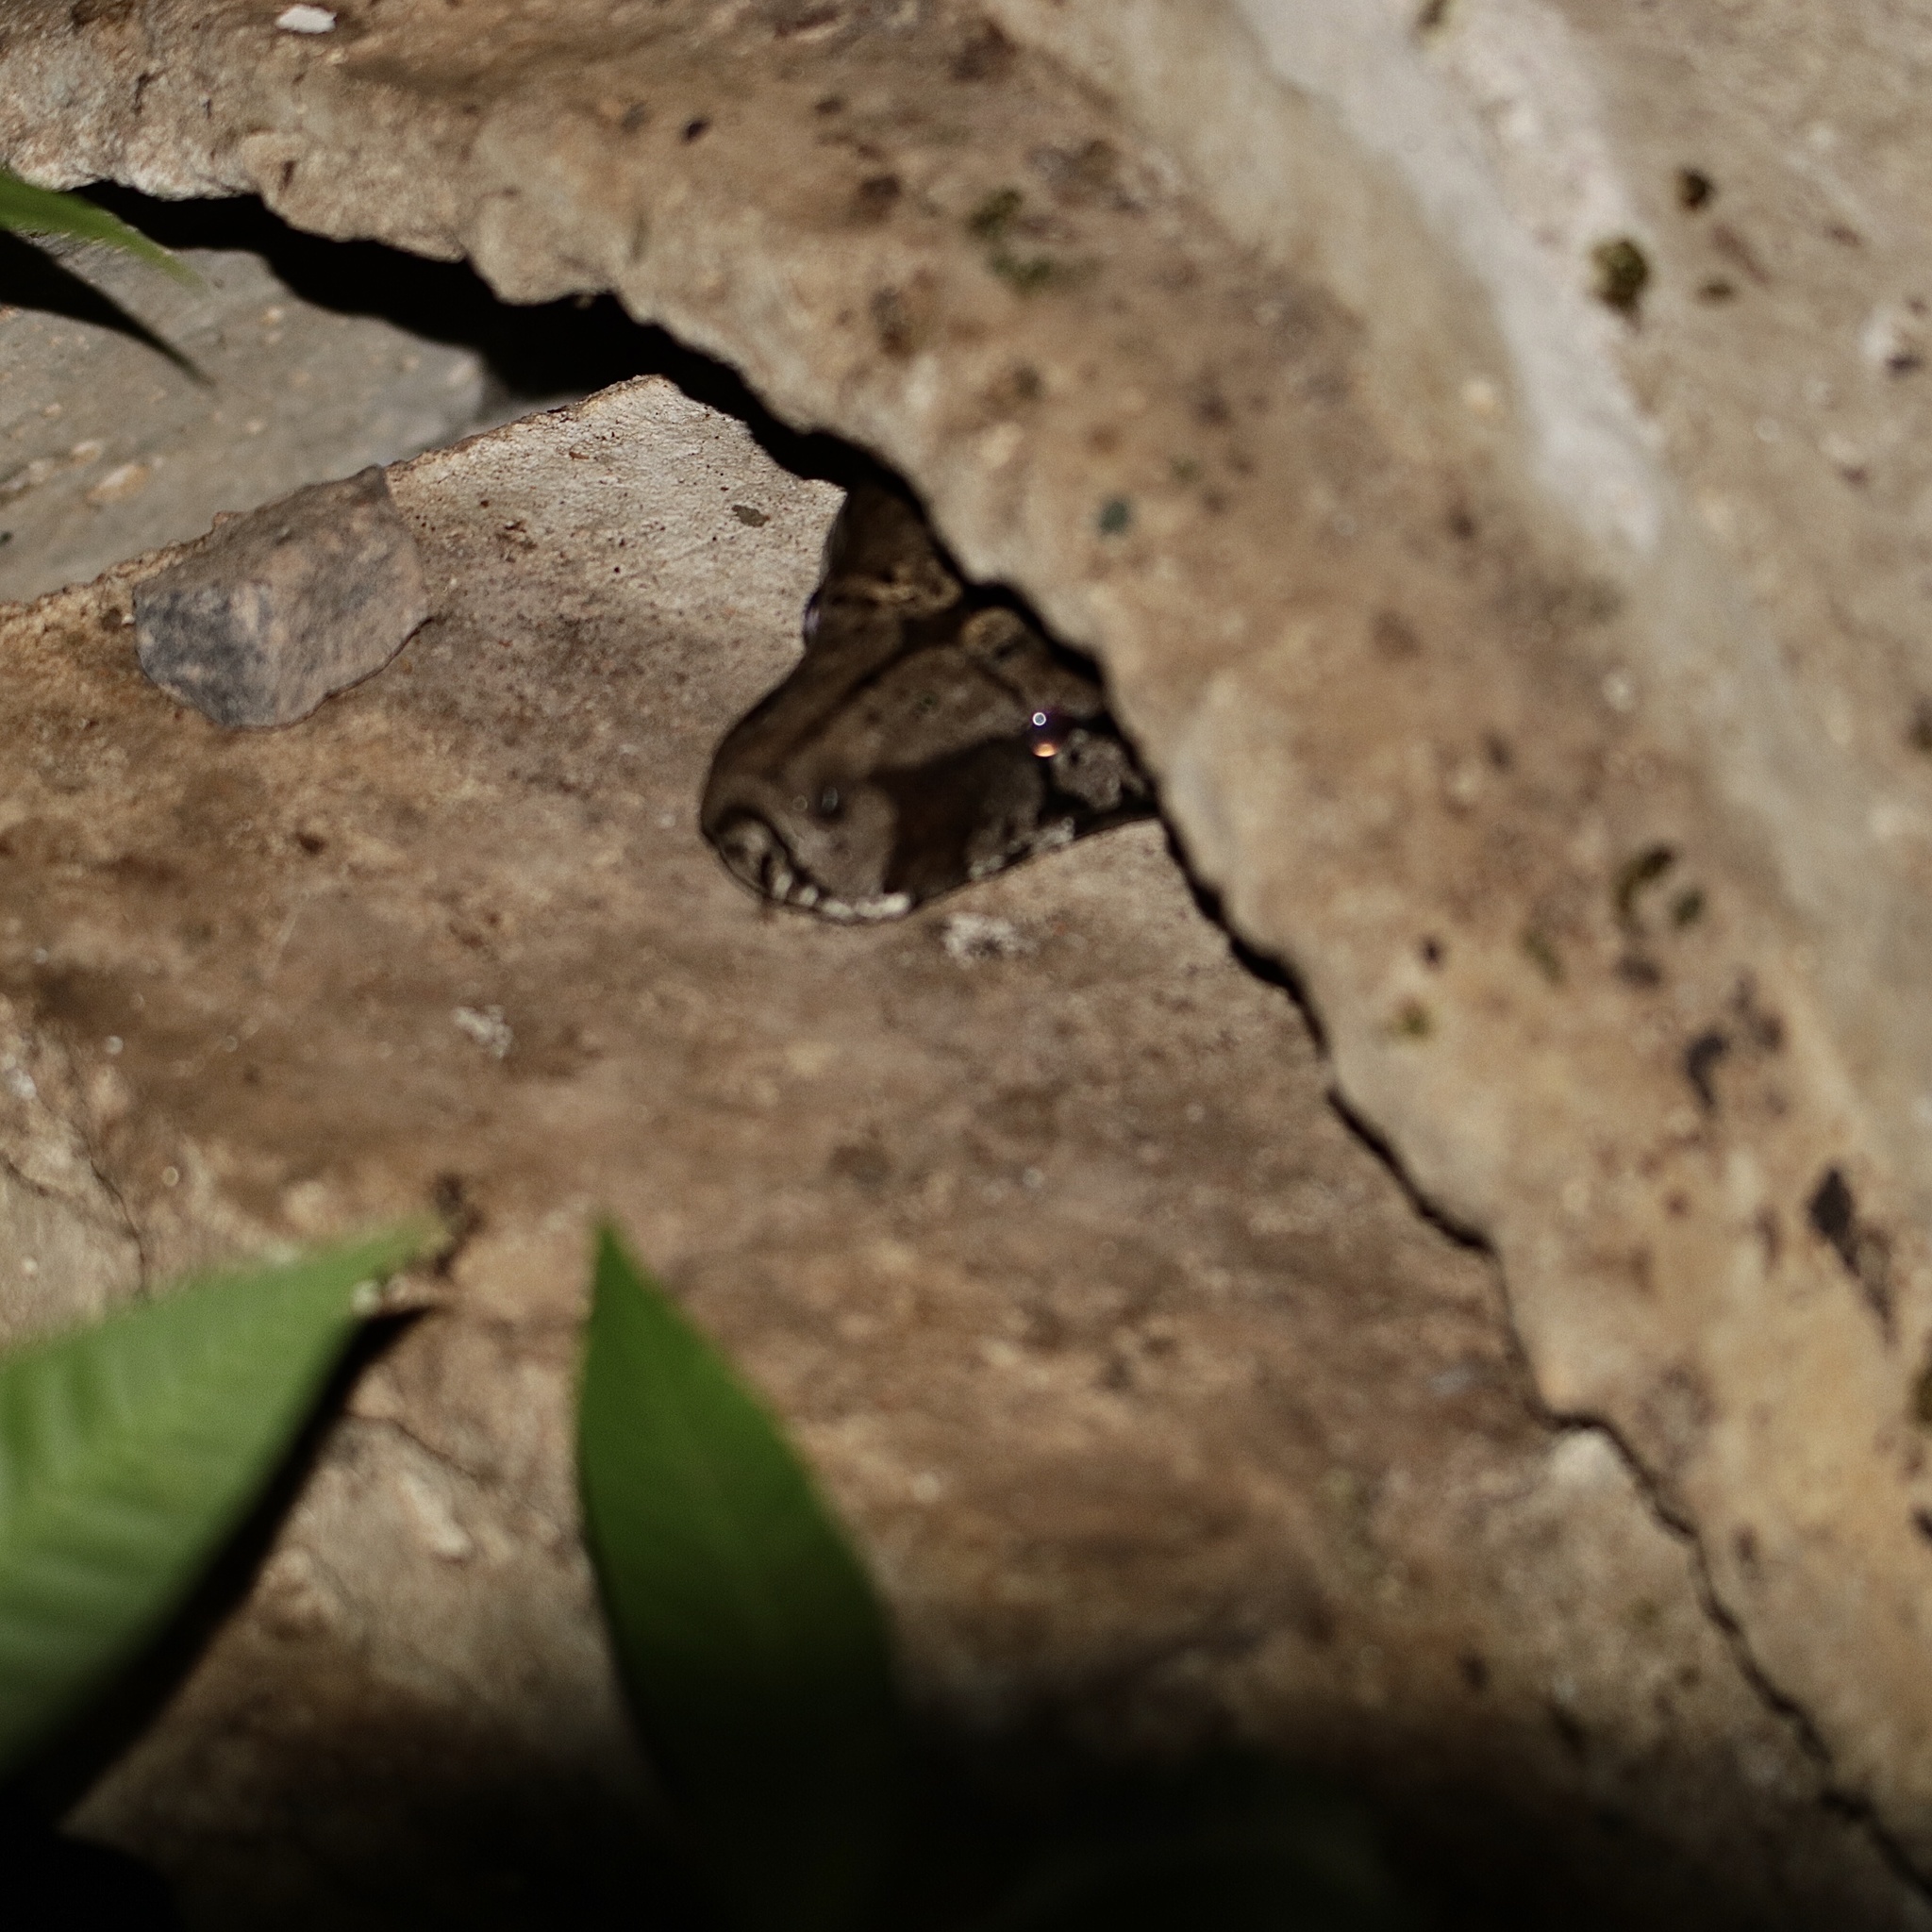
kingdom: Animalia
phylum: Chordata
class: Squamata
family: Boidae
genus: Boa
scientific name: Boa imperator
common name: Central american boa
